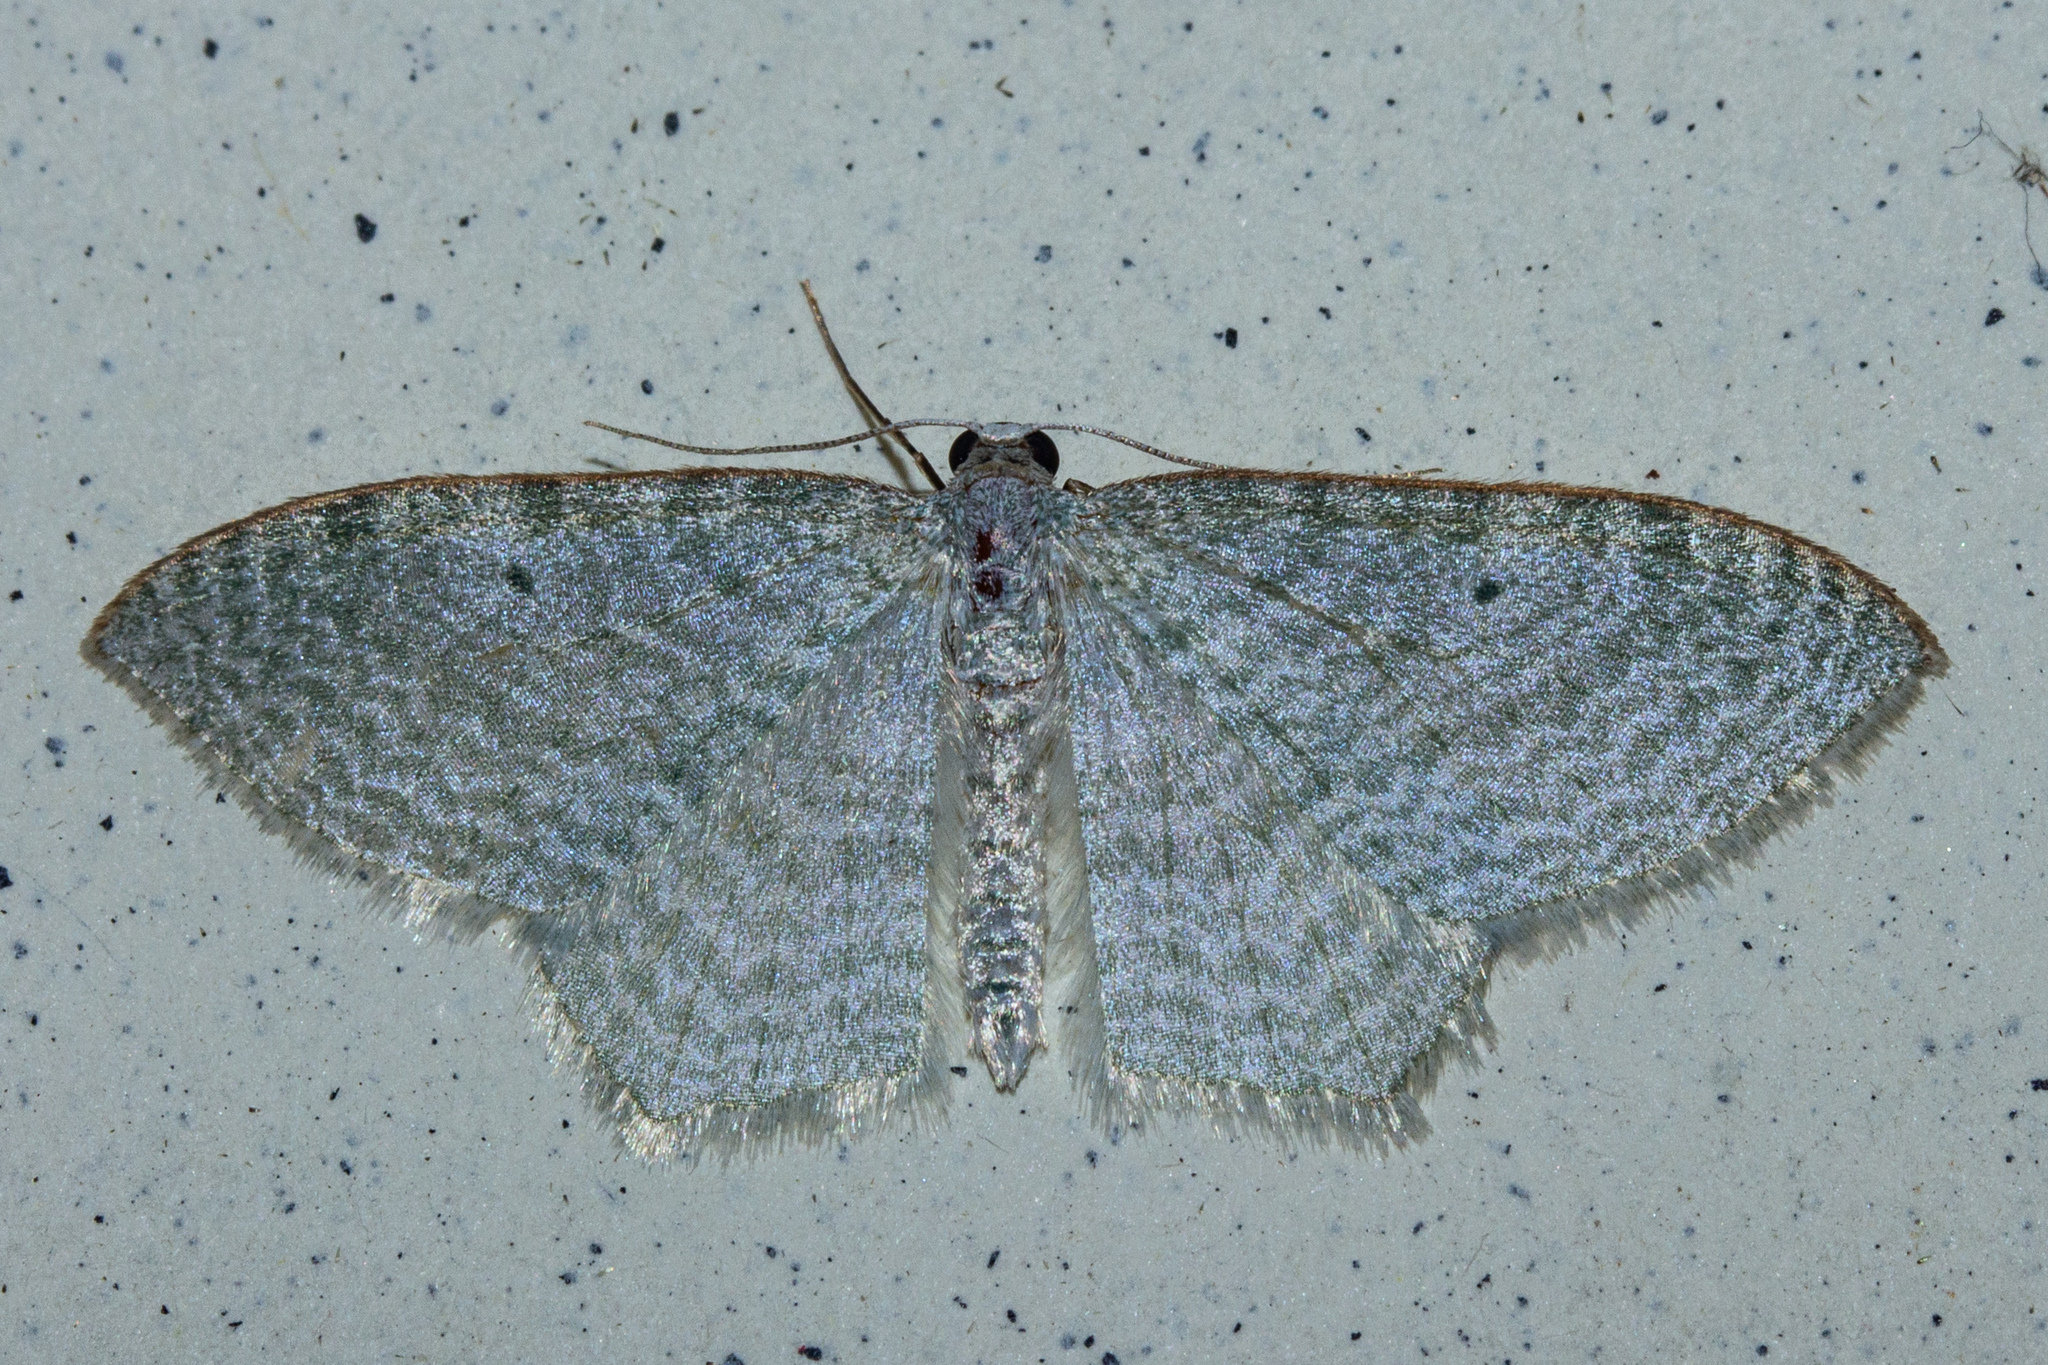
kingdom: Animalia
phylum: Arthropoda
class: Insecta
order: Lepidoptera
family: Geometridae
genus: Poecilasthena
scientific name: Poecilasthena pulchraria
